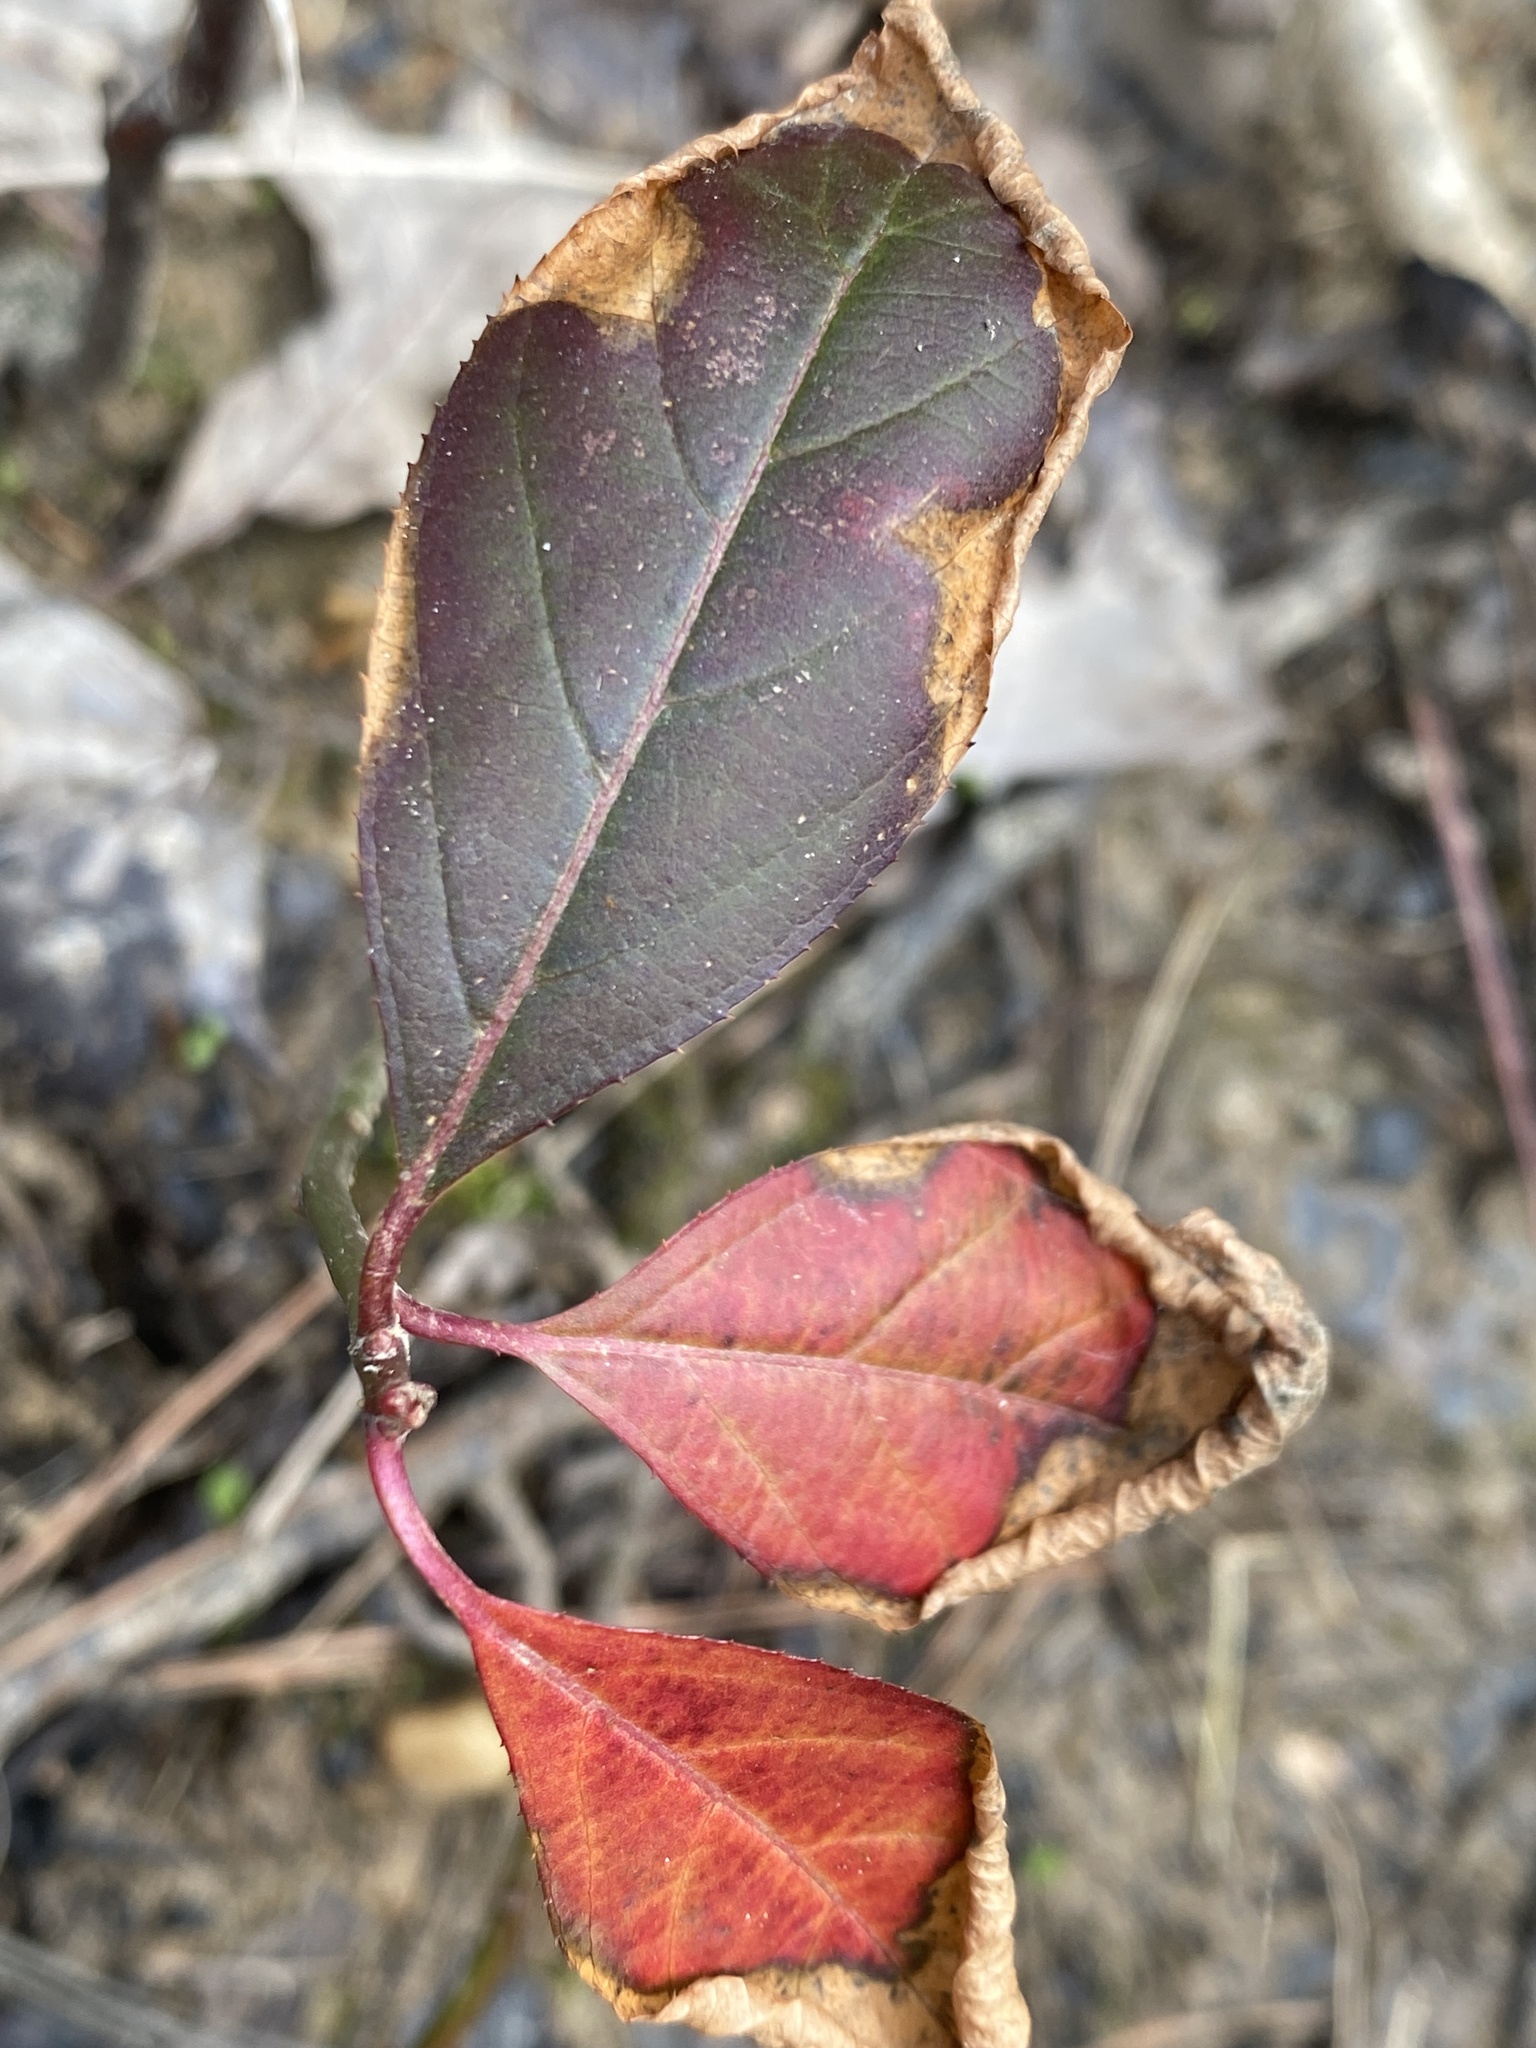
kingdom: Plantae
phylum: Tracheophyta
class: Magnoliopsida
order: Saxifragales
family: Iteaceae
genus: Itea
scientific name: Itea virginica
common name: Sweetspire
